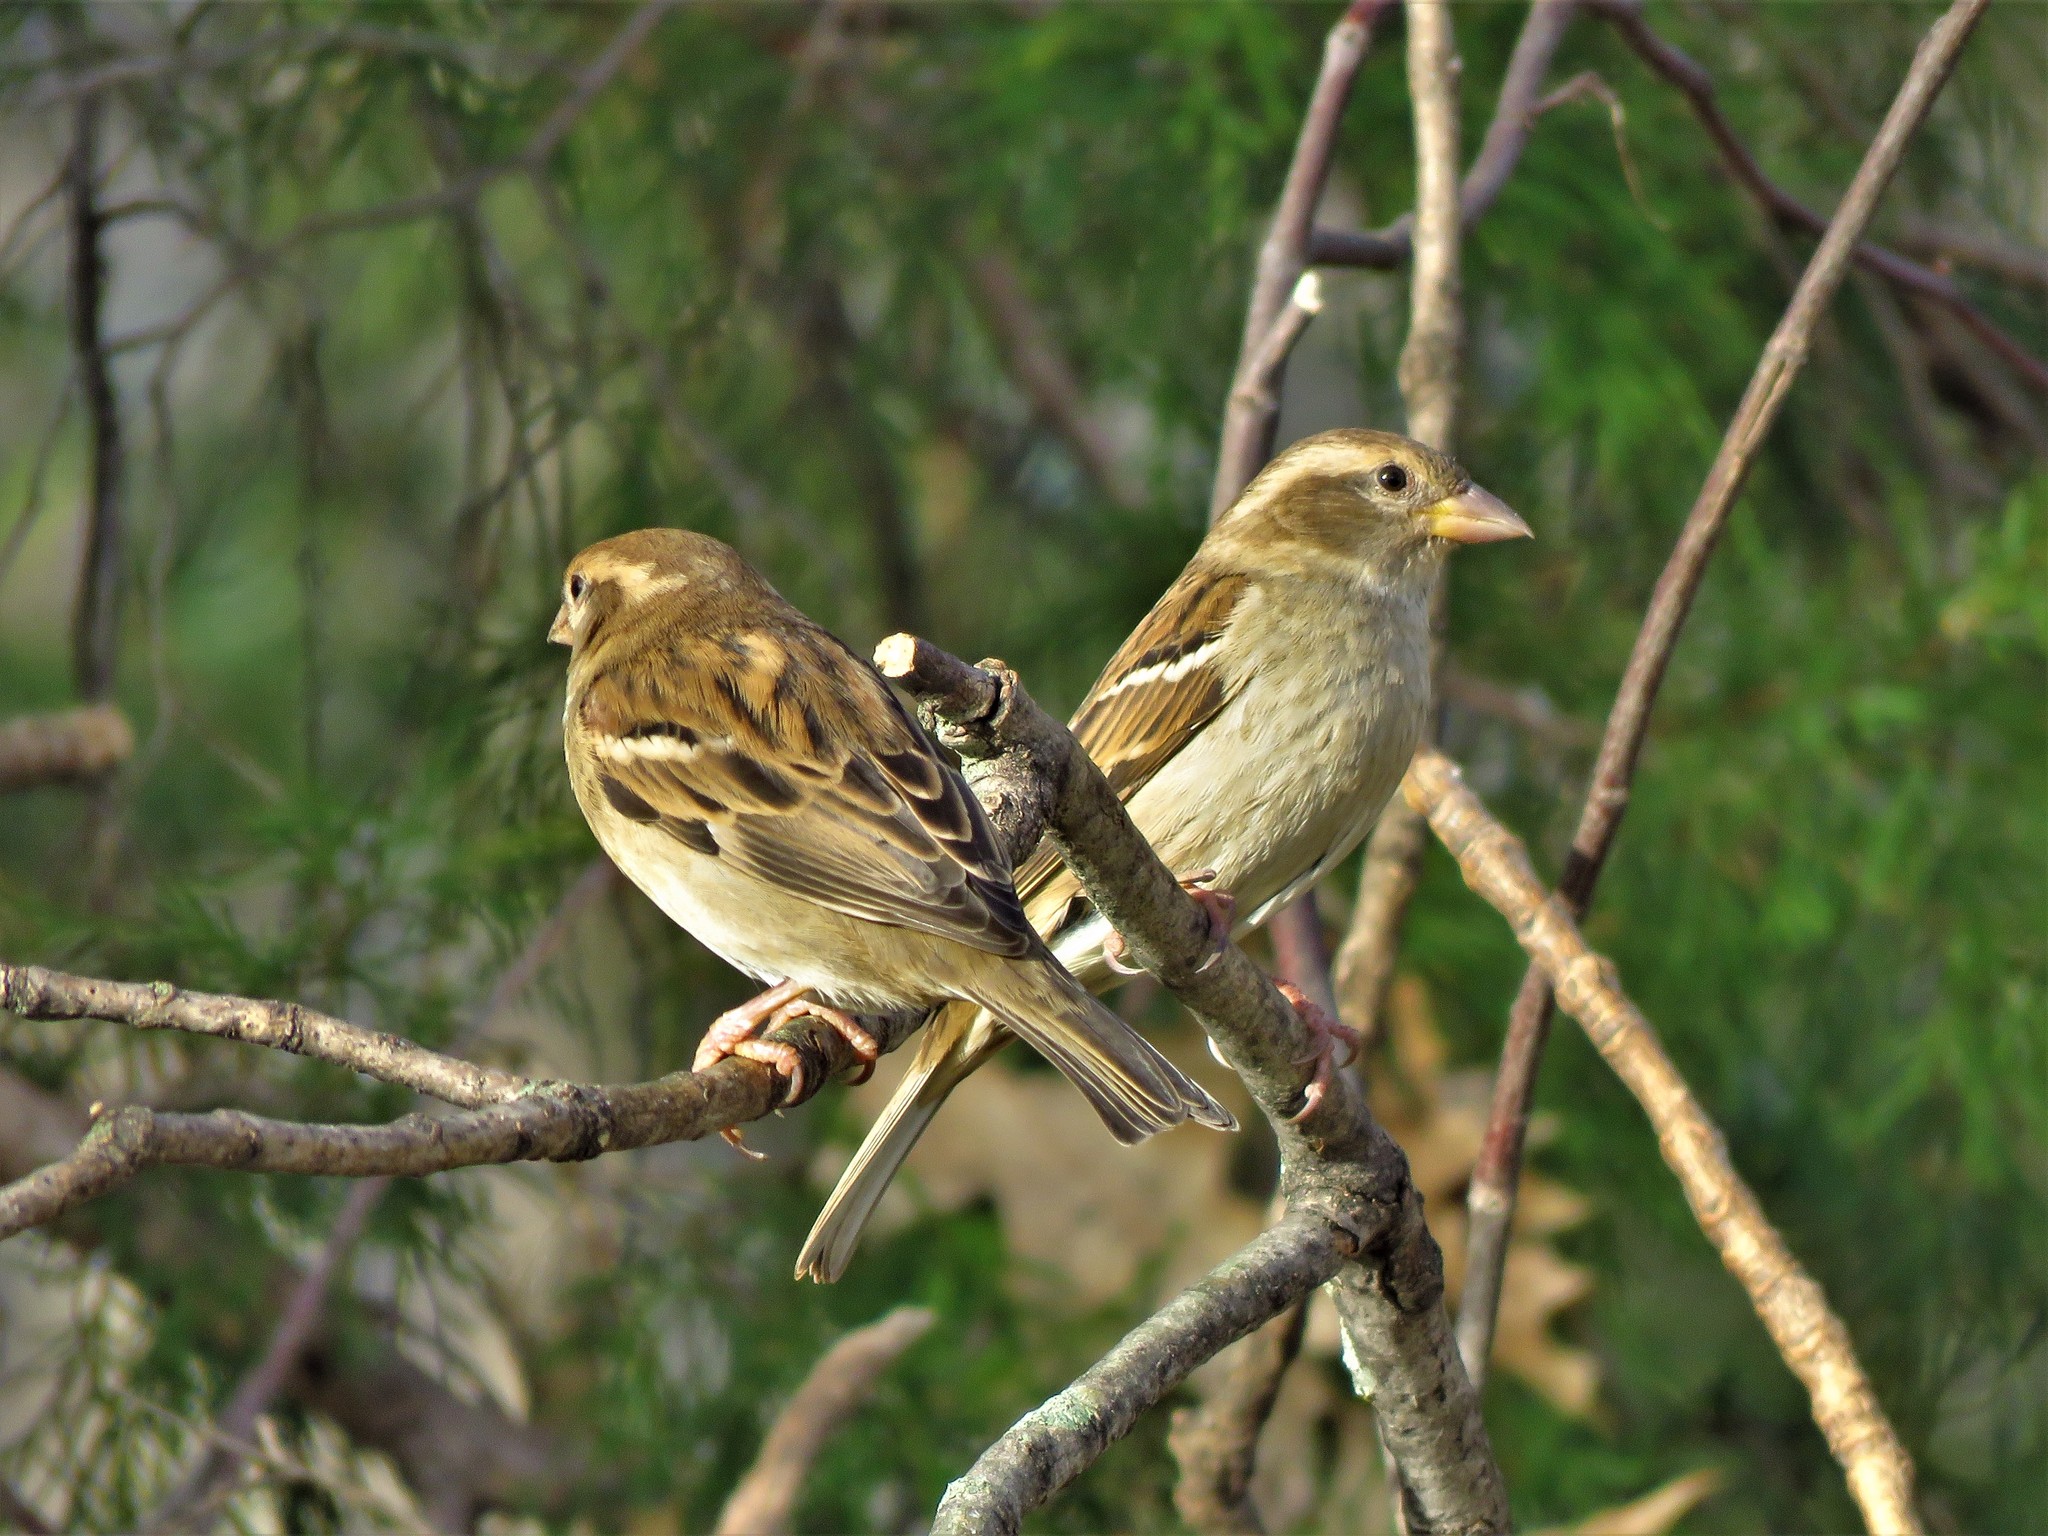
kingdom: Animalia
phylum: Chordata
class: Aves
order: Passeriformes
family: Passeridae
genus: Passer
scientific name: Passer domesticus
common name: House sparrow
